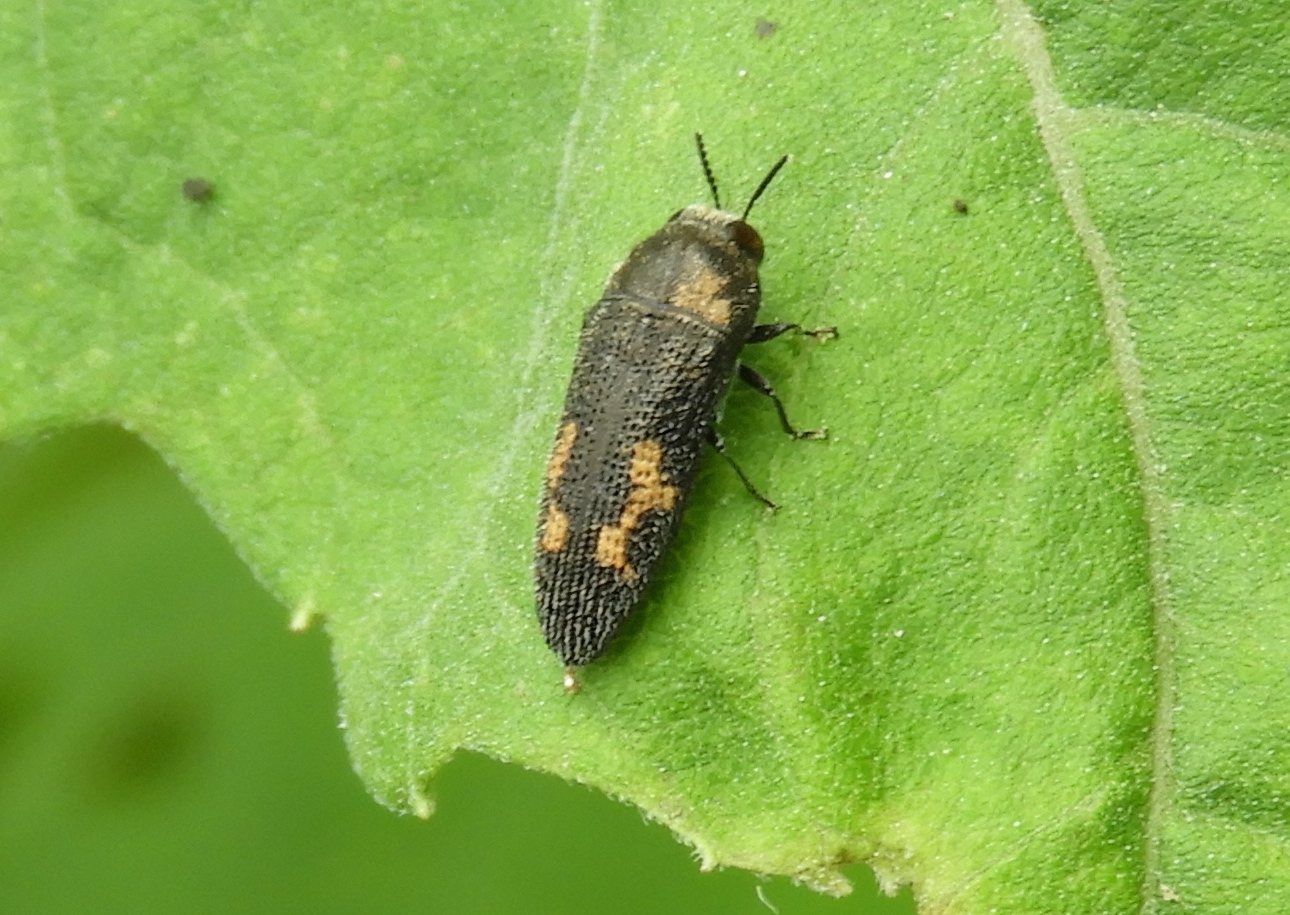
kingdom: Animalia
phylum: Arthropoda
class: Insecta
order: Coleoptera
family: Buprestidae
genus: Acmaeodera
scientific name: Acmaeodera setosa
